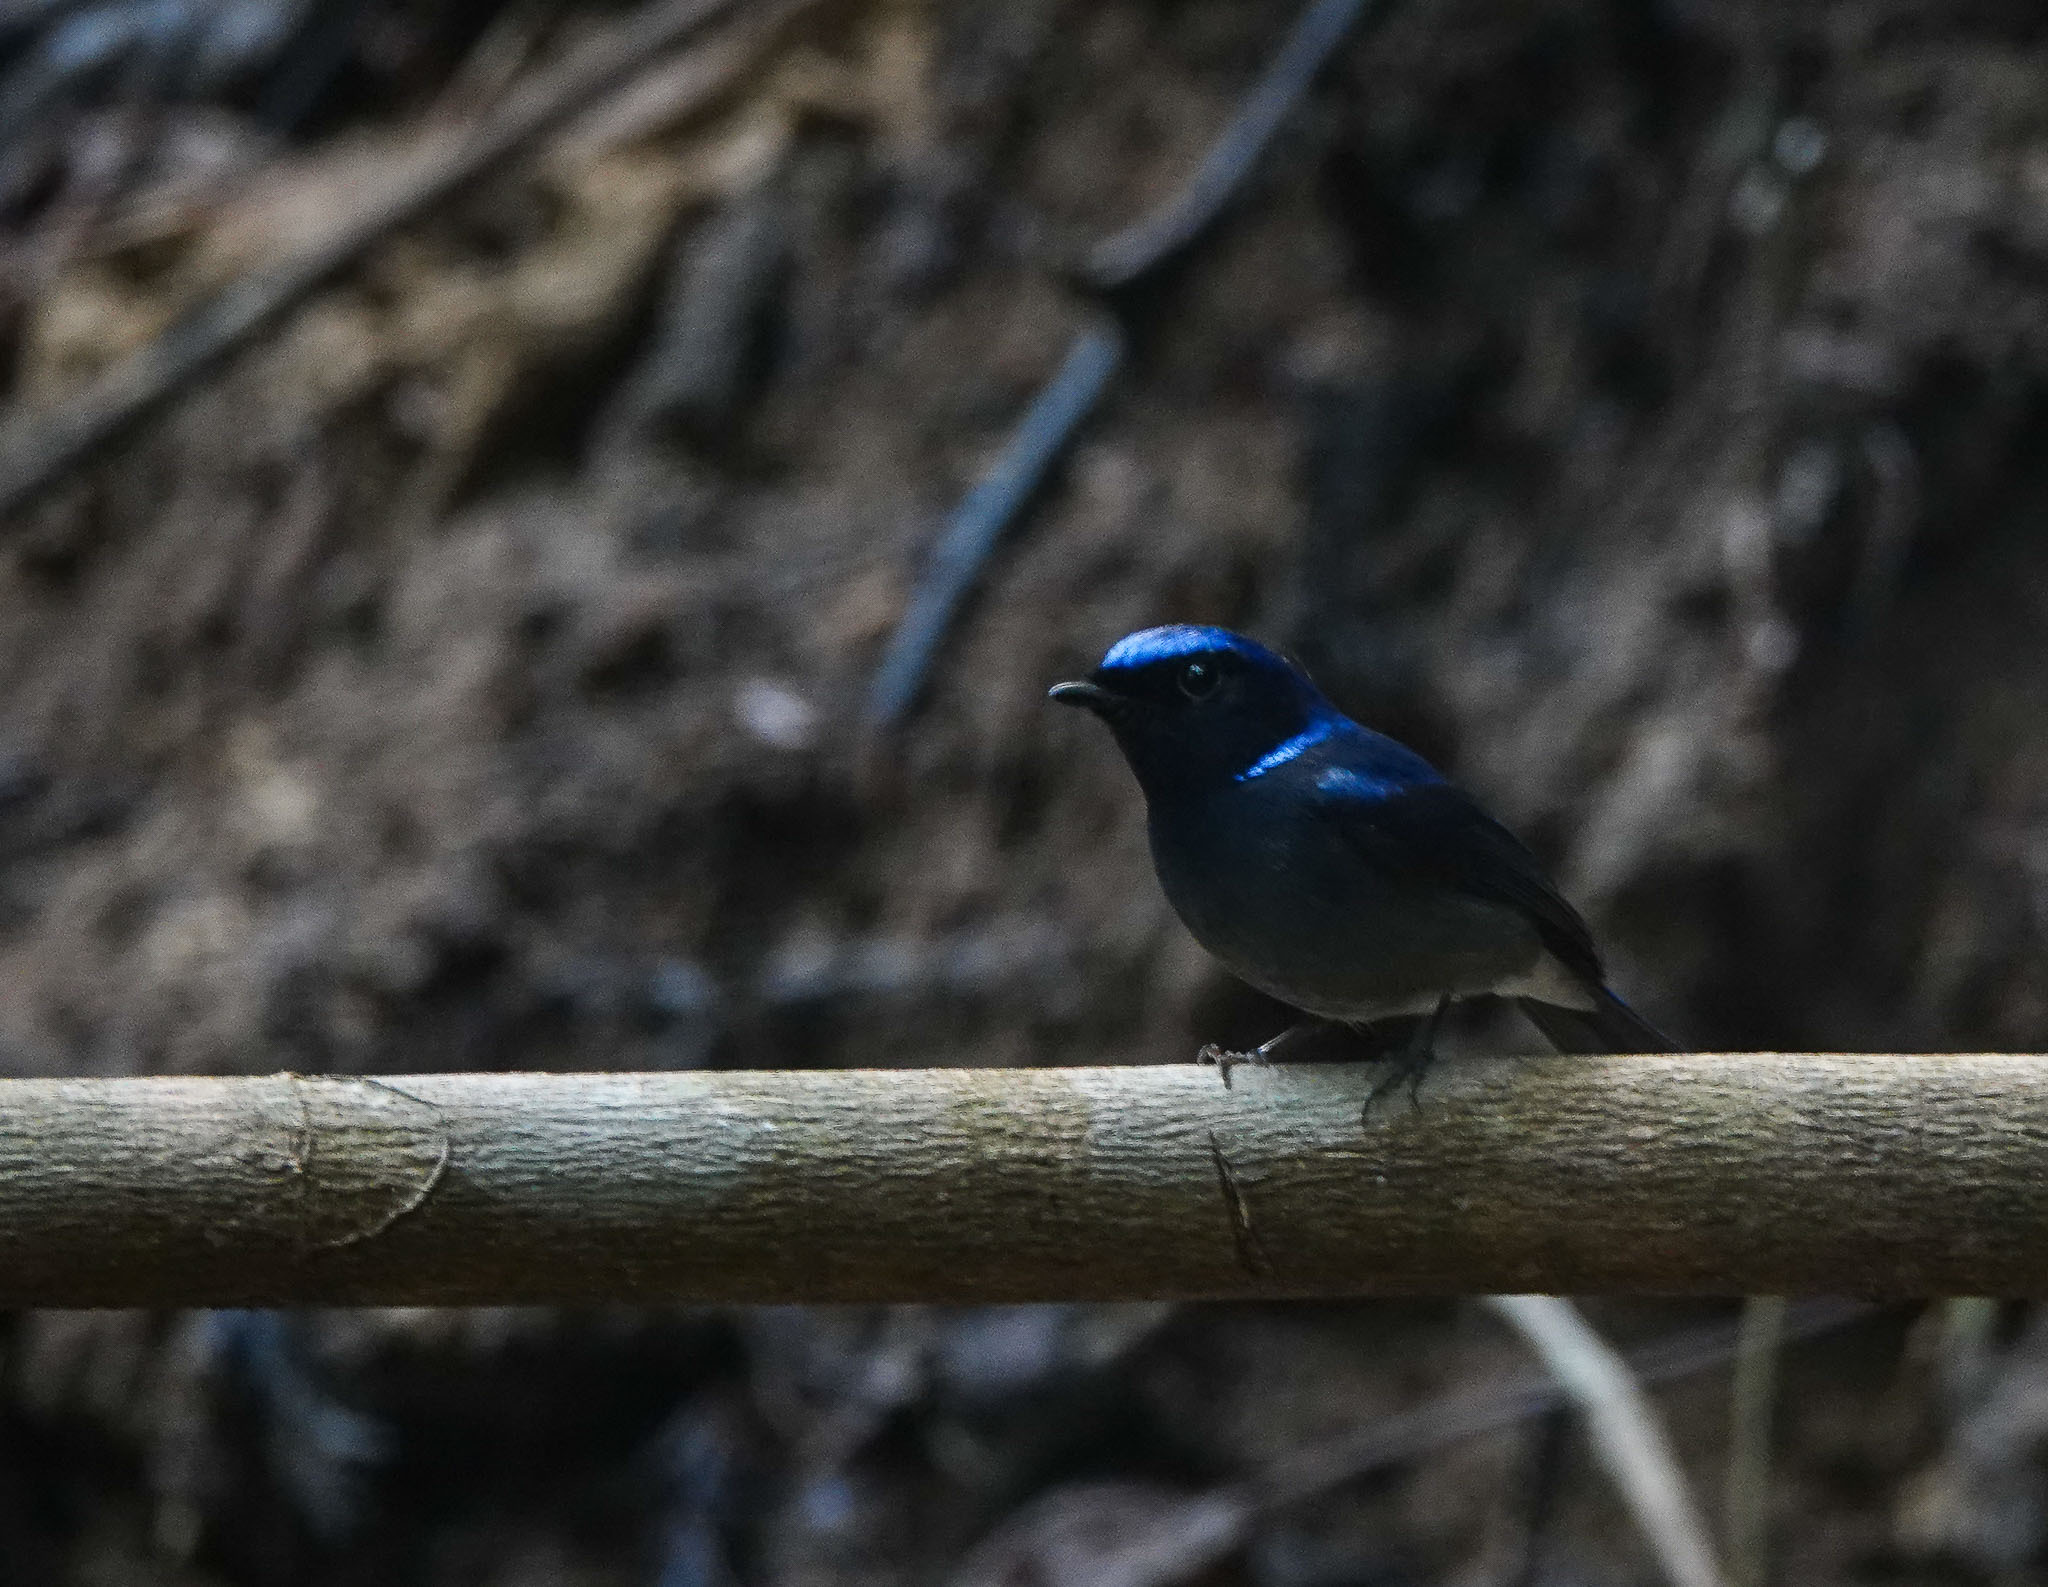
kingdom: Animalia
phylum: Chordata
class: Aves
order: Passeriformes
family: Muscicapidae
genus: Niltava
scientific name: Niltava macgrigoriae
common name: Small niltava
